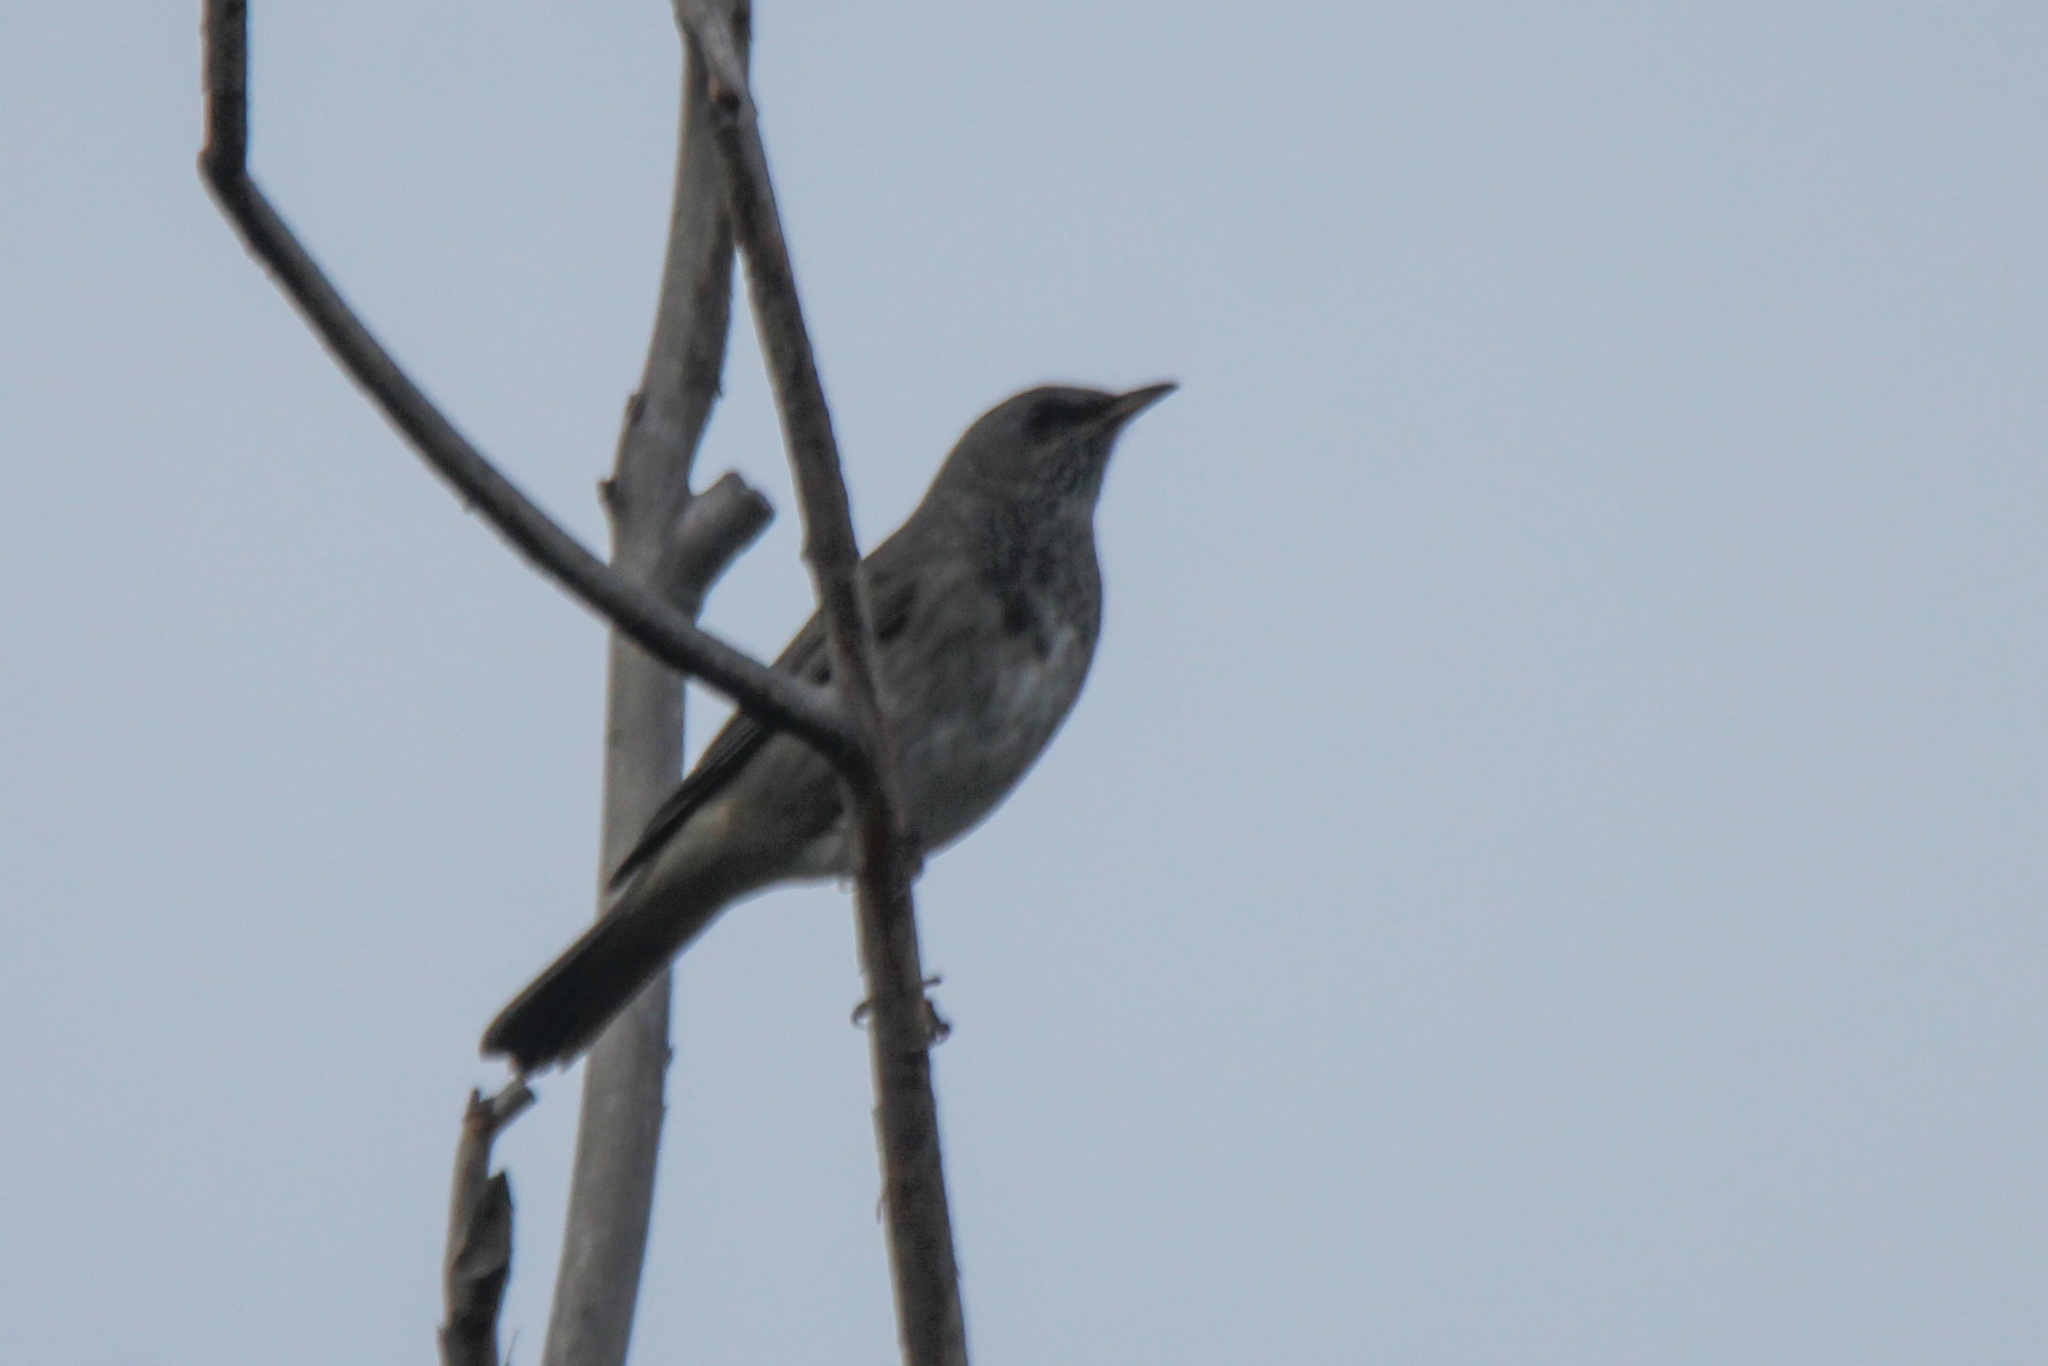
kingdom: Animalia
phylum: Chordata
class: Aves
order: Passeriformes
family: Turdidae
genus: Turdus
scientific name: Turdus atrogularis
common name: Black-throated thrush
